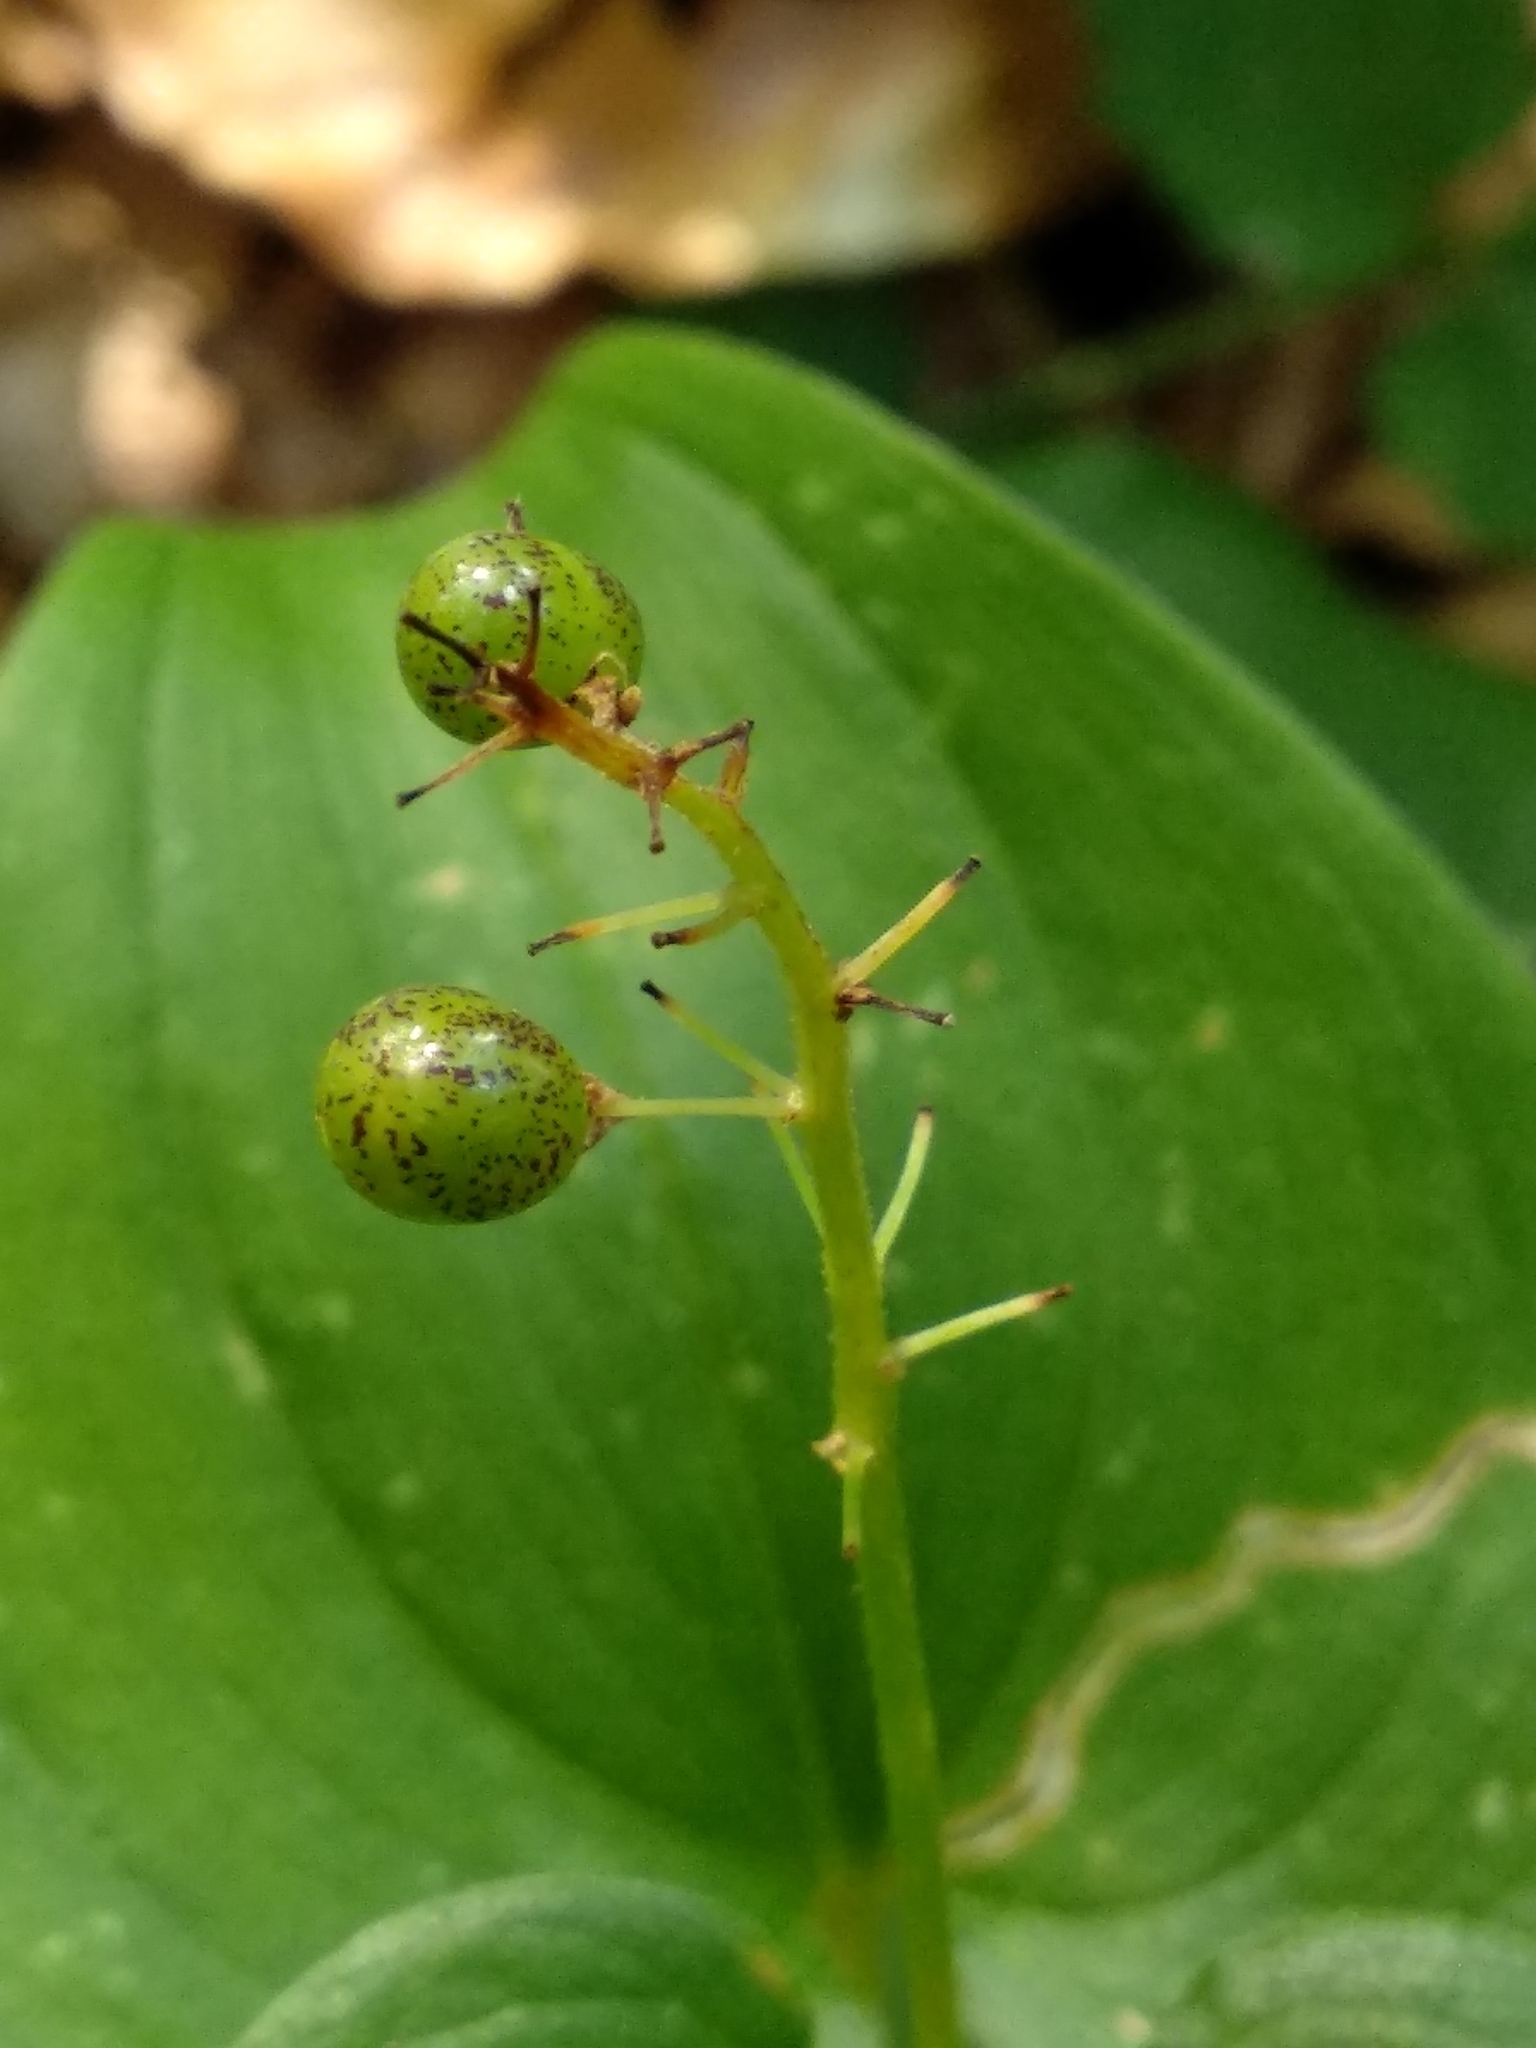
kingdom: Plantae
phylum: Tracheophyta
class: Liliopsida
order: Asparagales
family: Asparagaceae
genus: Maianthemum
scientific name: Maianthemum bifolium
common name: May lily
